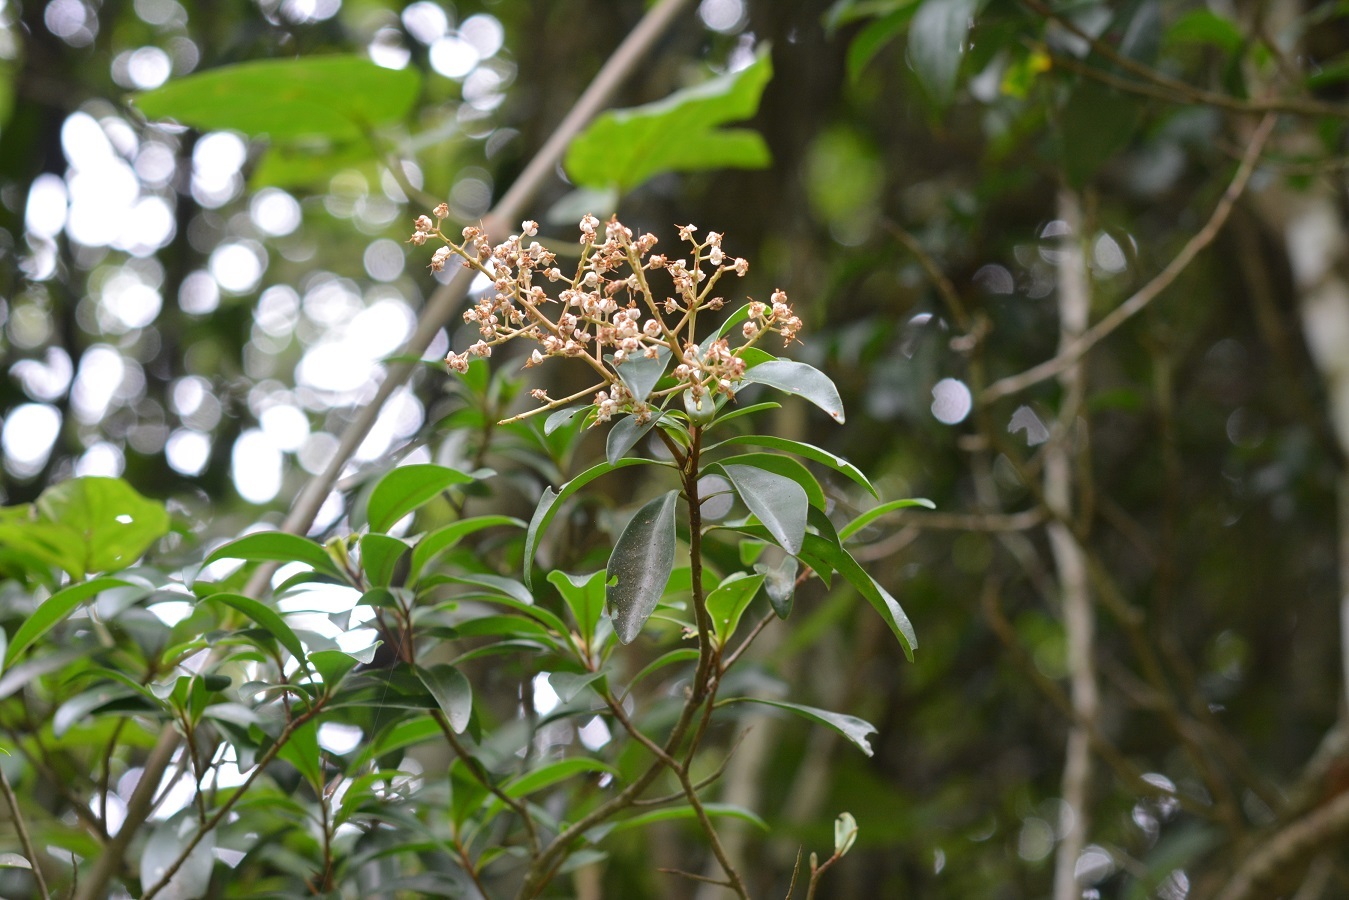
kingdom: Plantae
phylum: Tracheophyta
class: Magnoliopsida
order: Ericales
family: Primulaceae
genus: Ardisia
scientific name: Ardisia escallonioides
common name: Island marlberry
